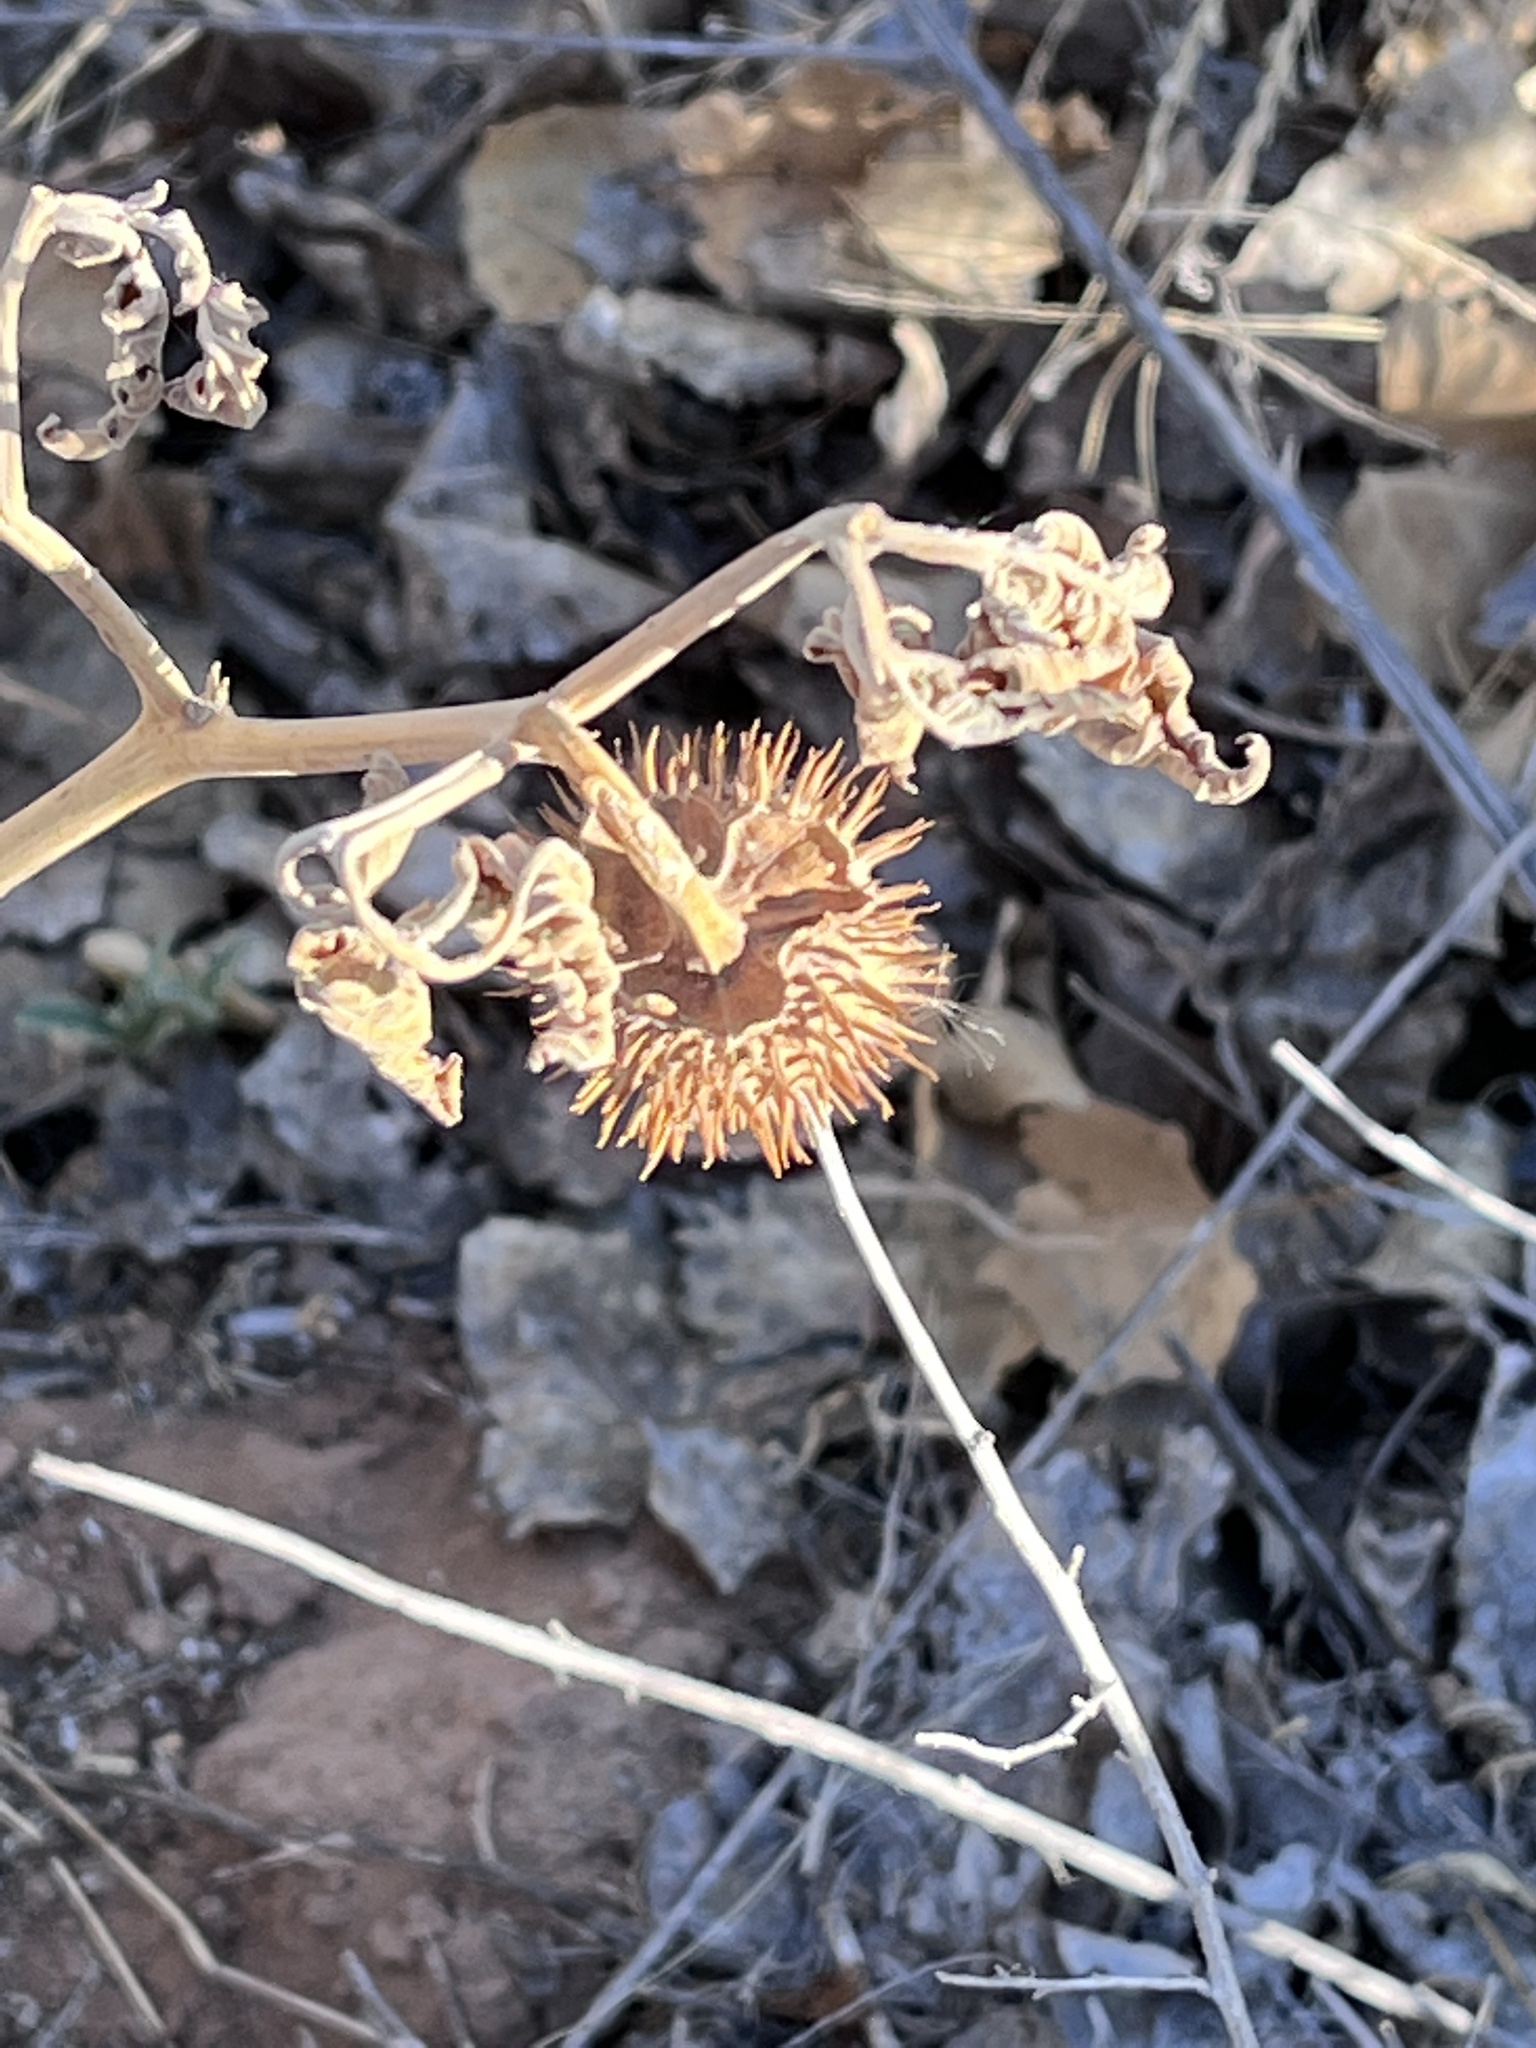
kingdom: Plantae
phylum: Tracheophyta
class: Magnoliopsida
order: Solanales
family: Solanaceae
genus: Datura
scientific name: Datura wrightii
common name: Sacred thorn-apple
